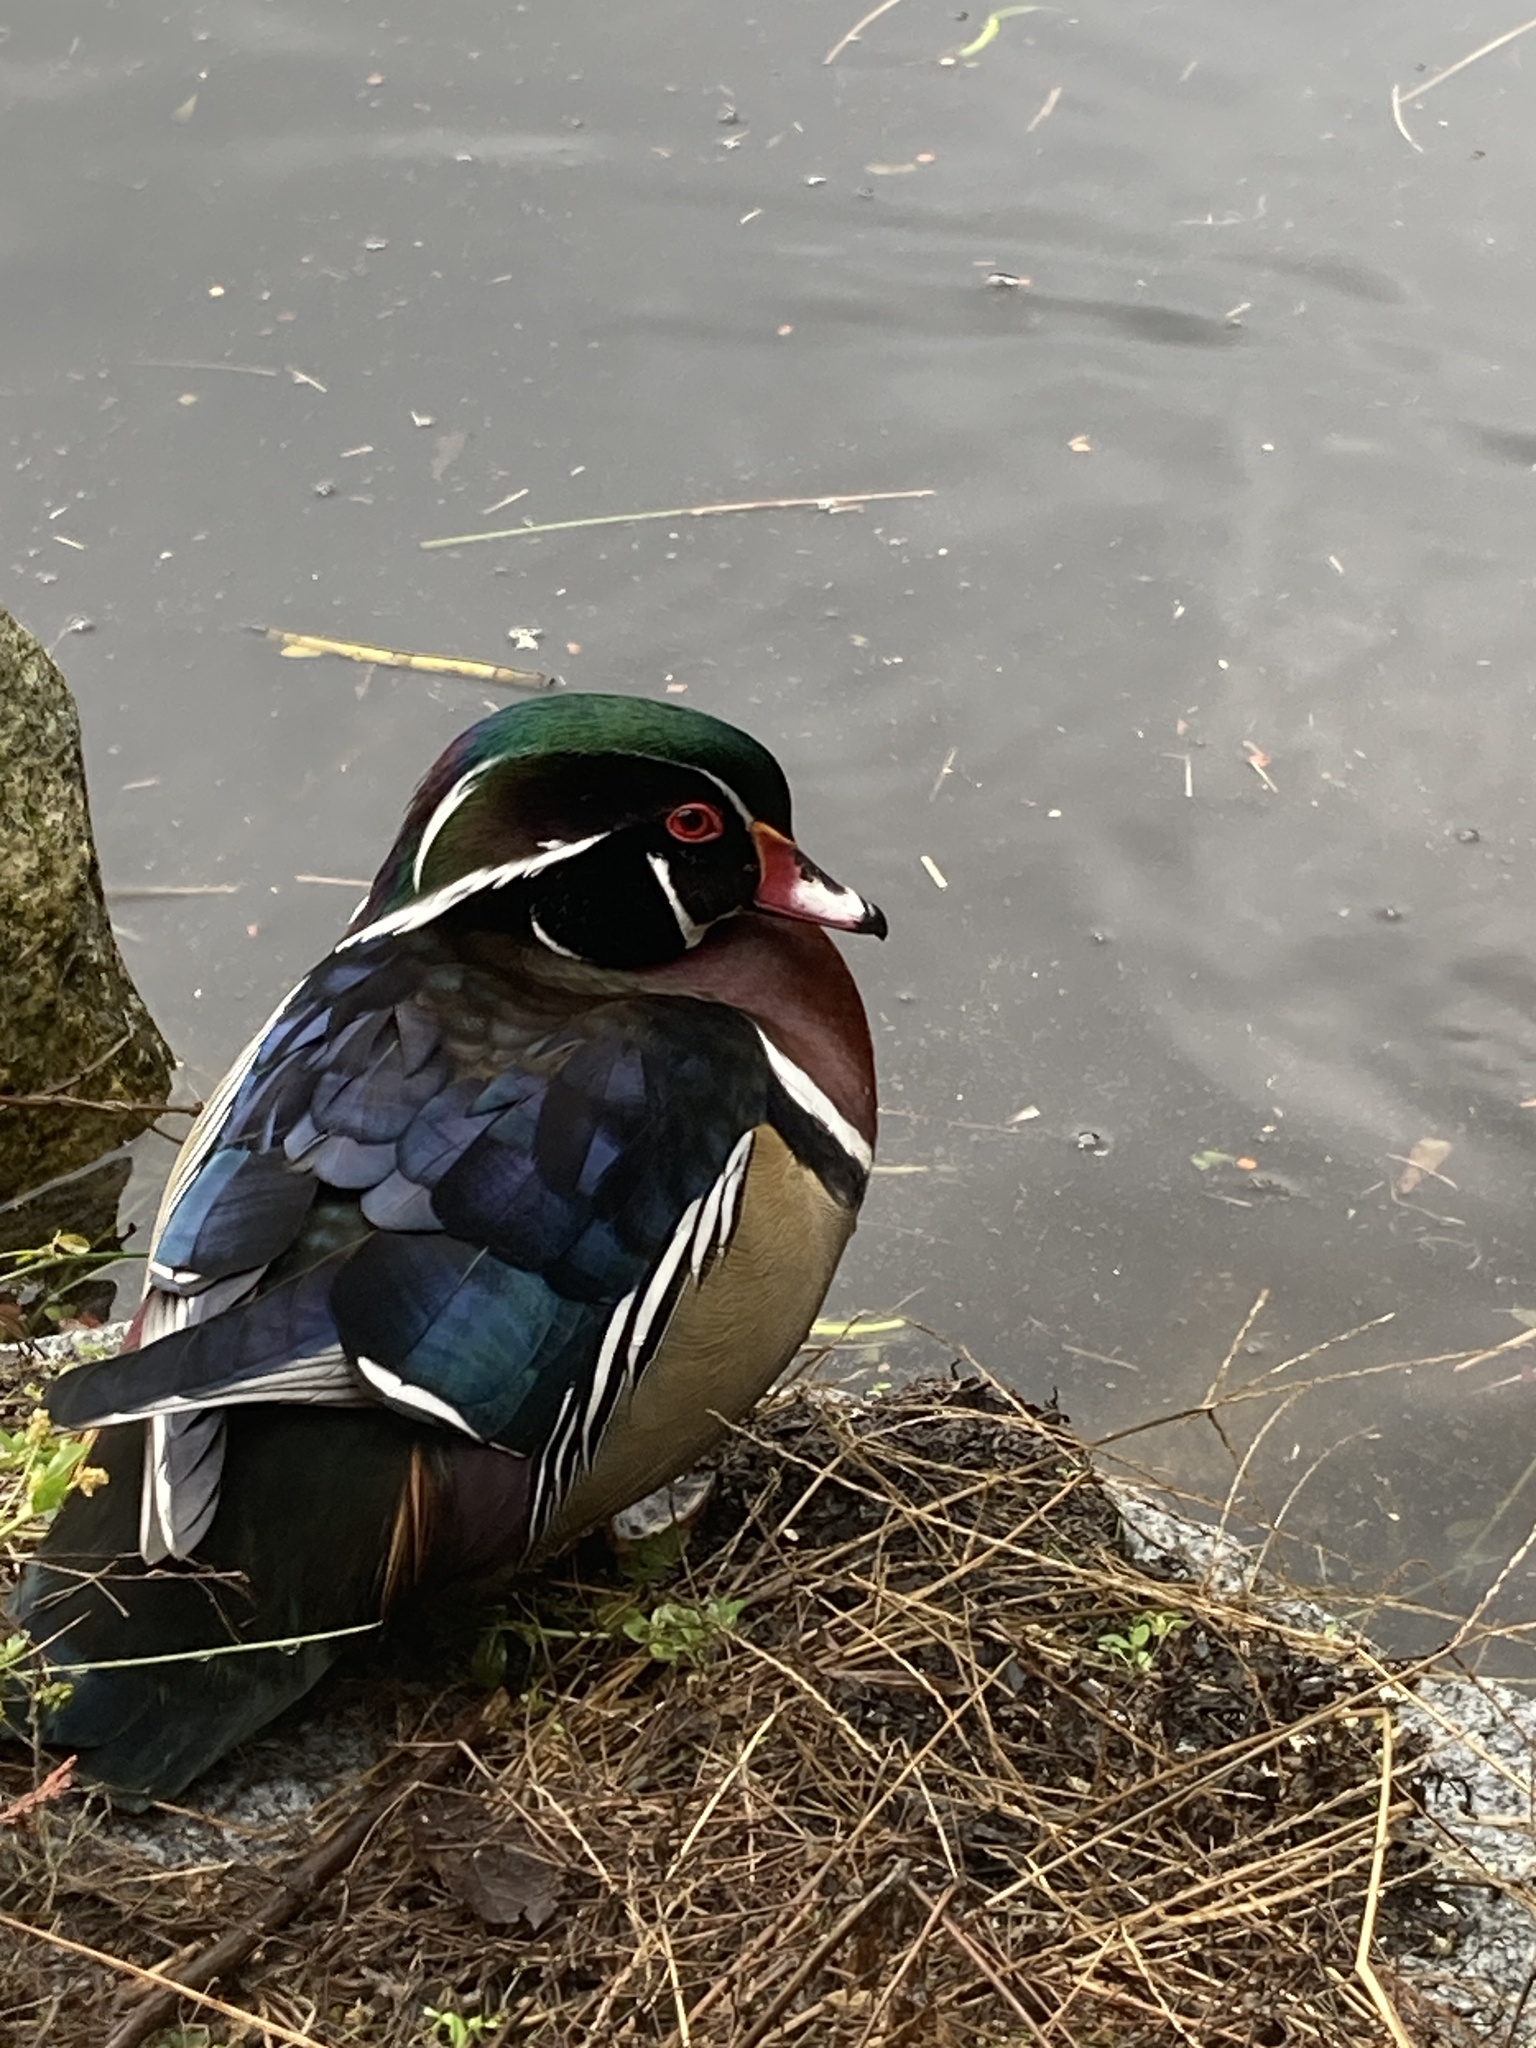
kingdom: Animalia
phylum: Chordata
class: Aves
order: Anseriformes
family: Anatidae
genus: Aix
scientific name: Aix sponsa
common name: Wood duck
